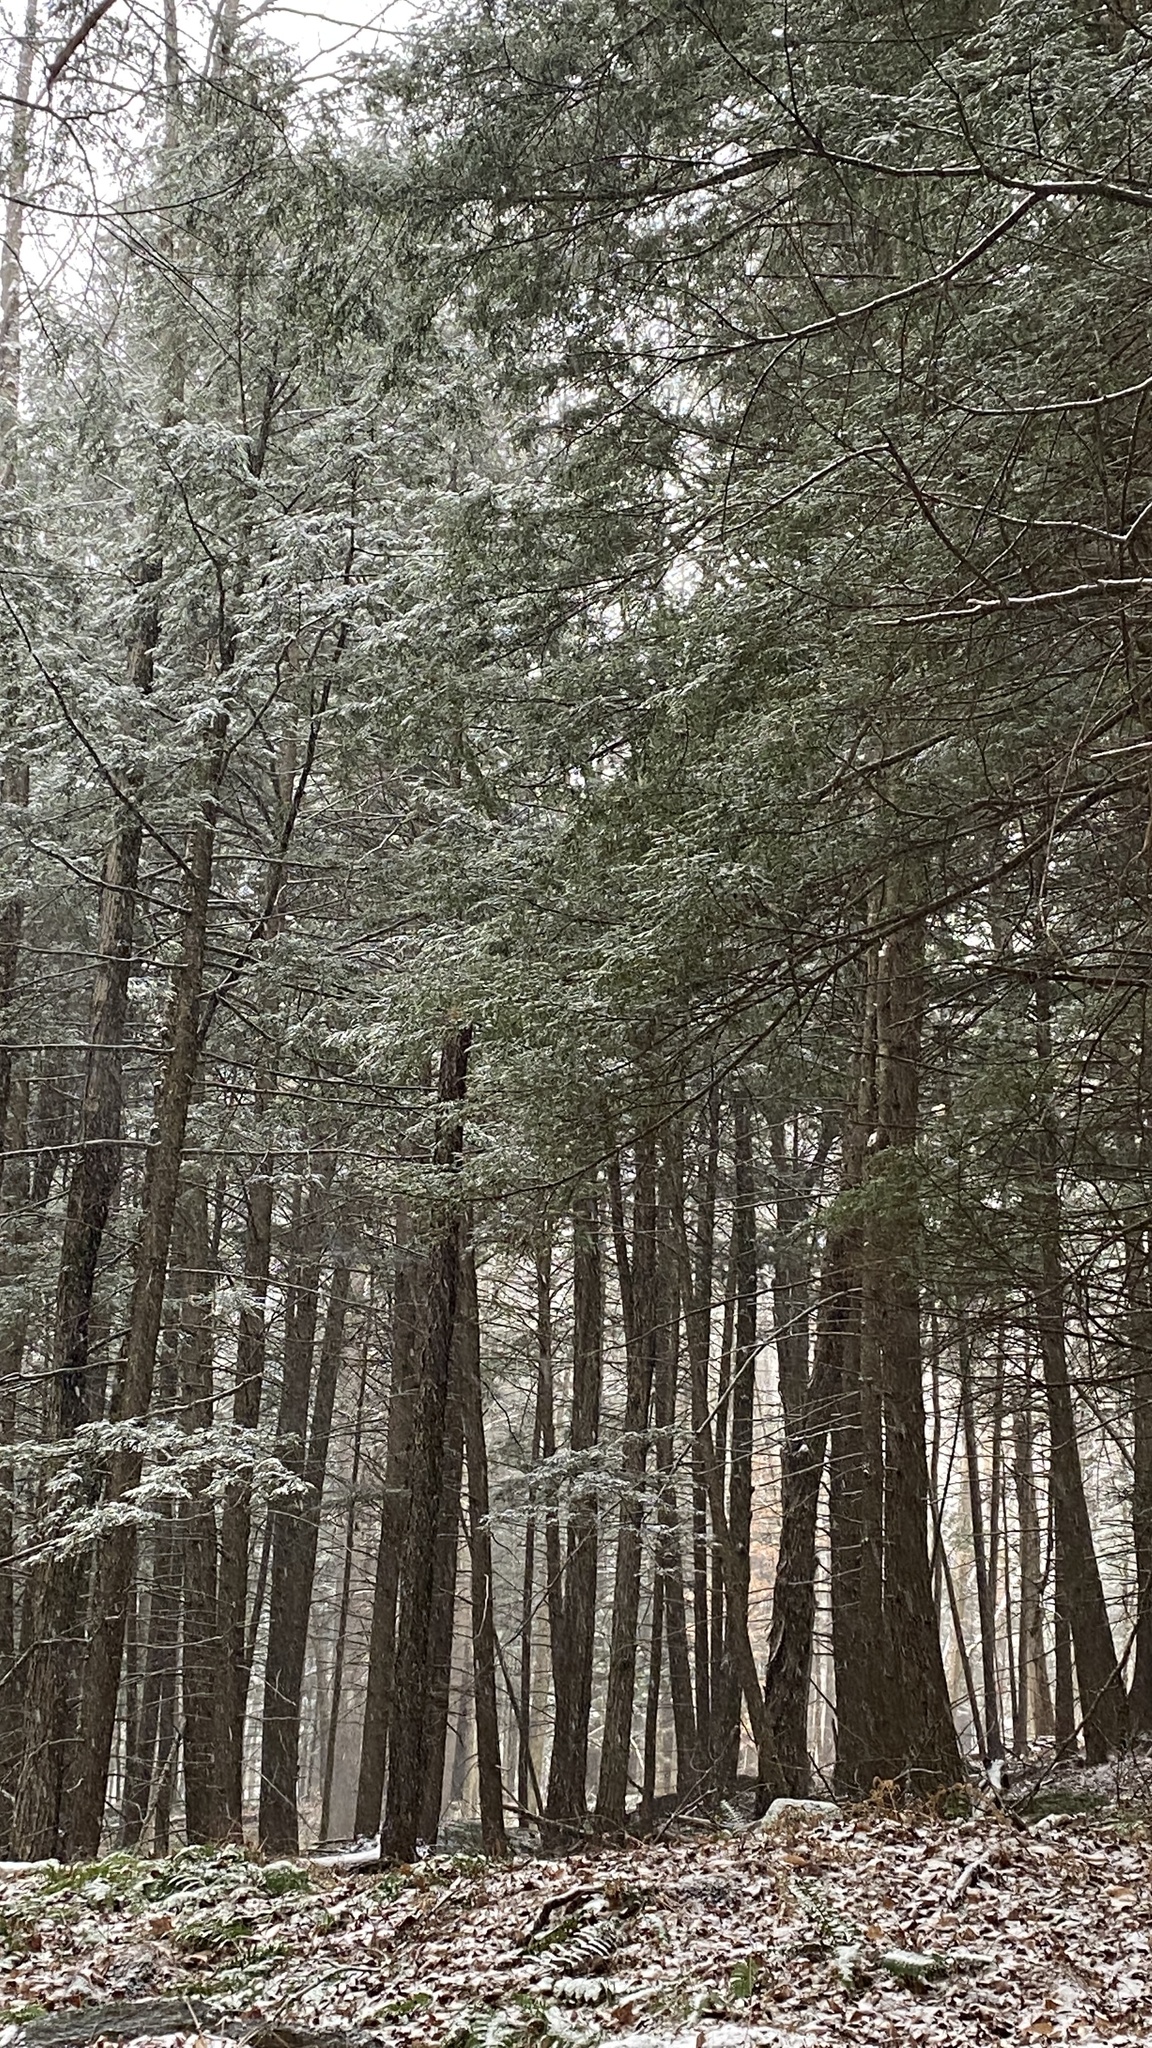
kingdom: Plantae
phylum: Tracheophyta
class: Pinopsida
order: Pinales
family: Pinaceae
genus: Tsuga
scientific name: Tsuga canadensis
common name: Eastern hemlock
